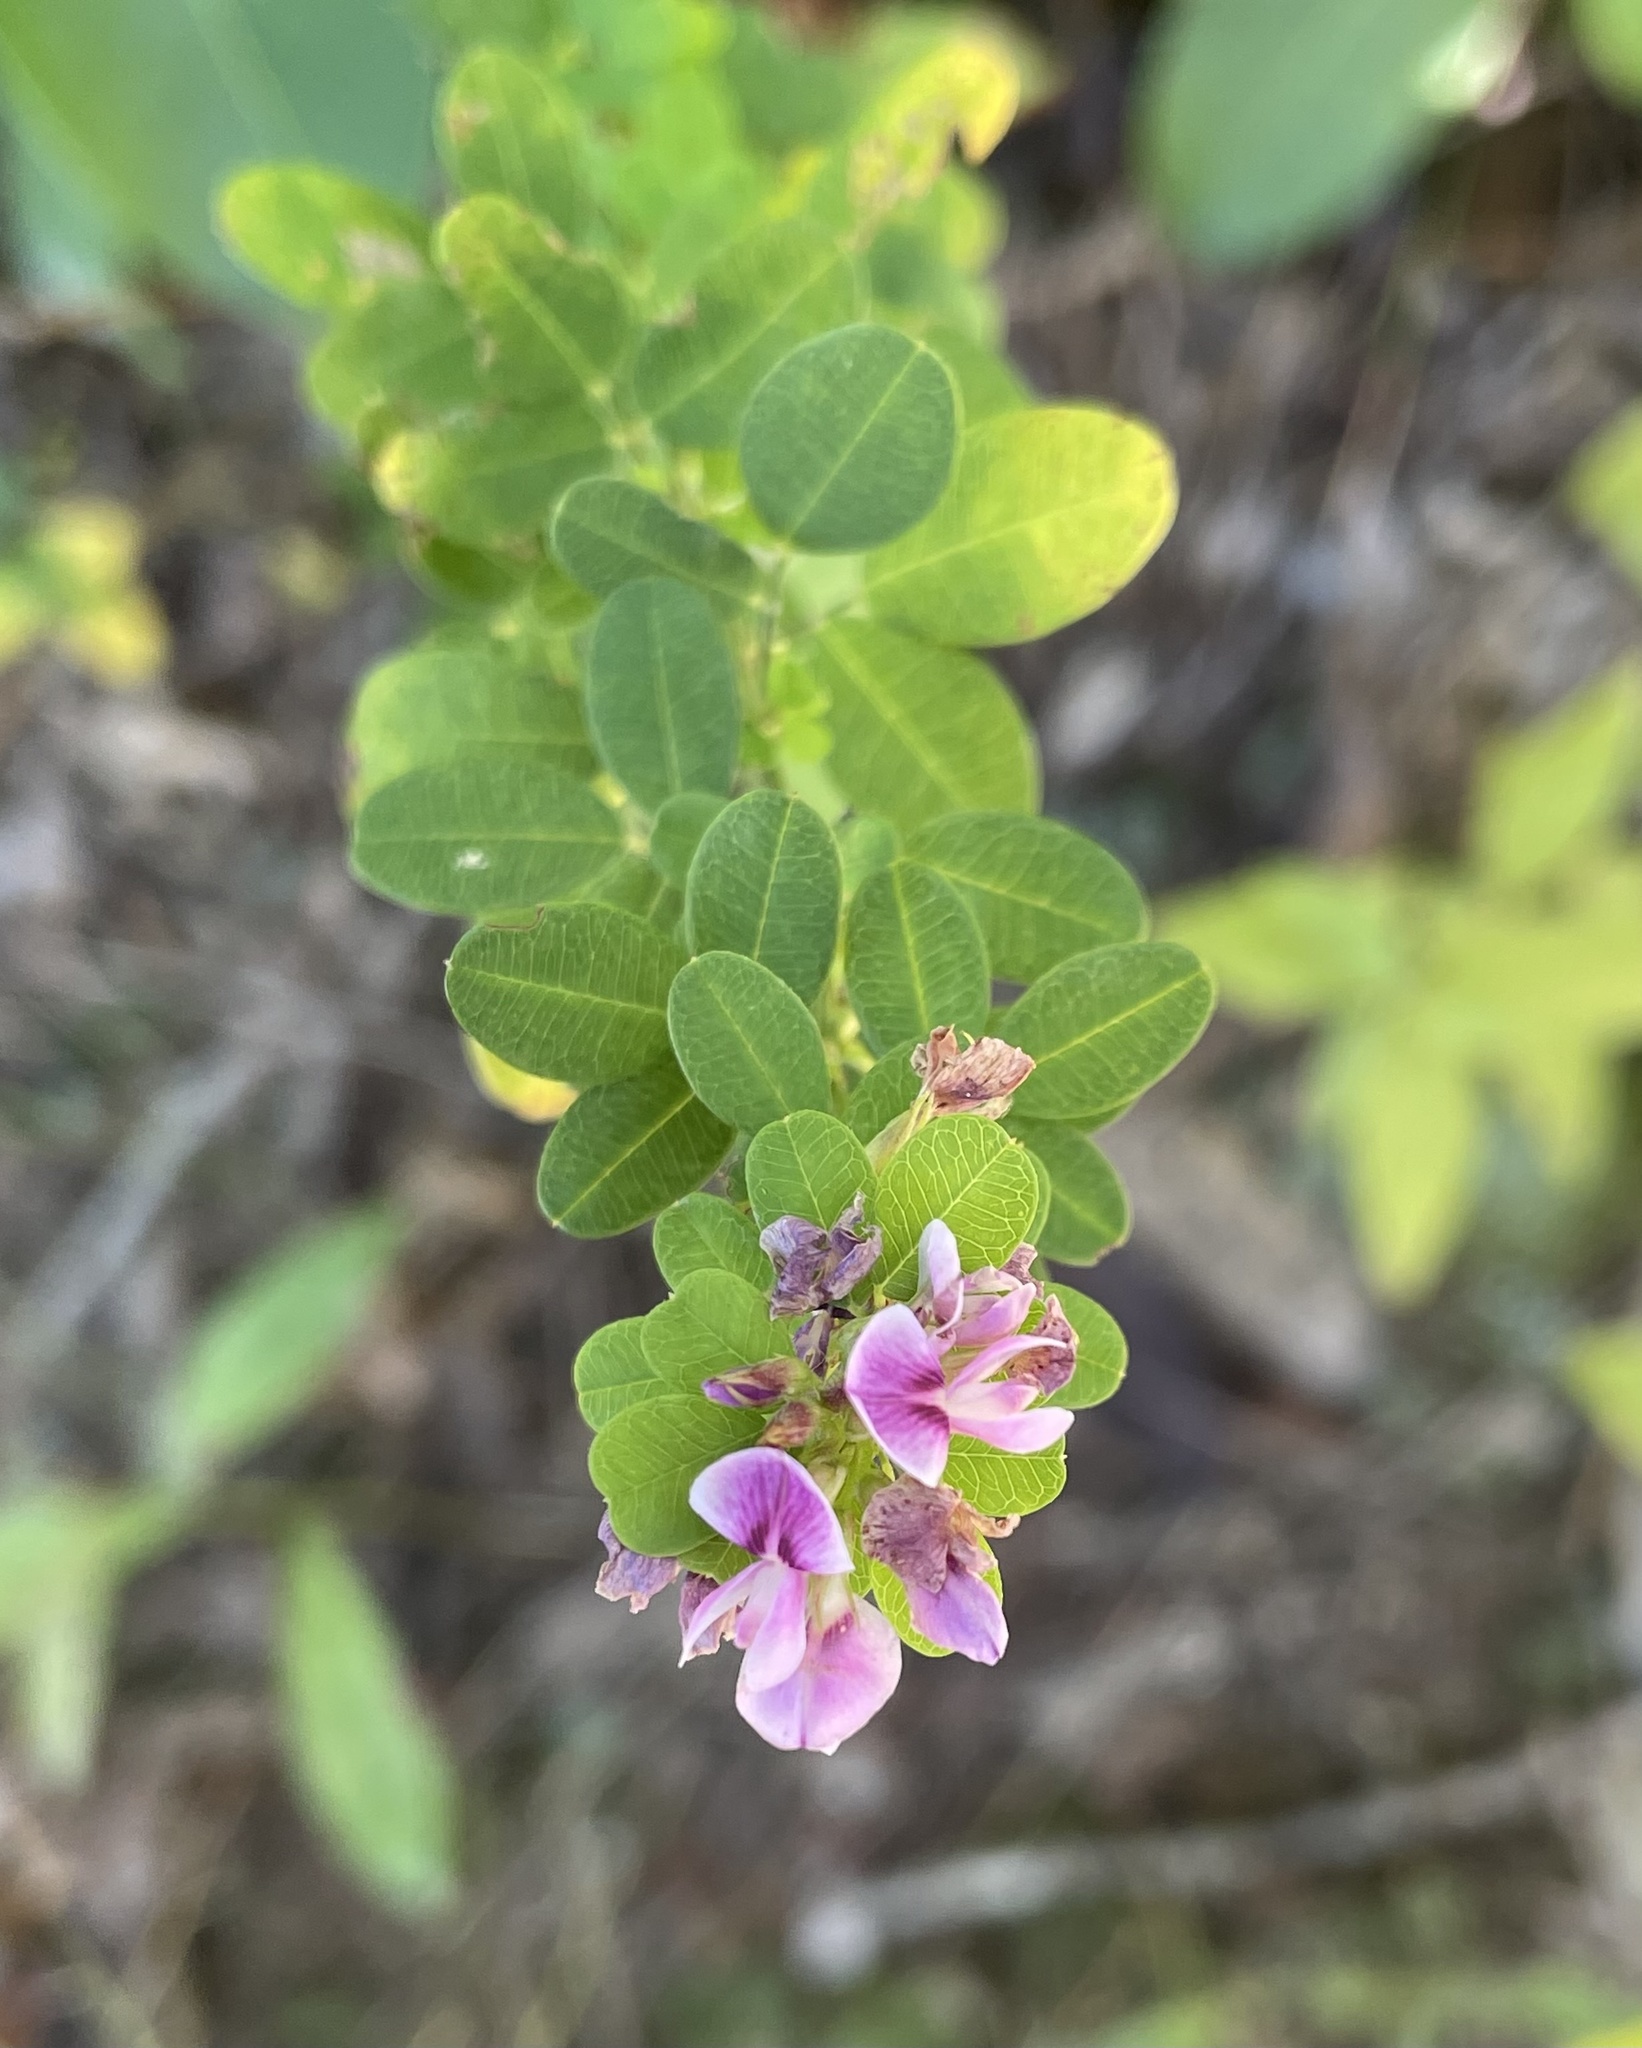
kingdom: Plantae
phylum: Tracheophyta
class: Magnoliopsida
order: Fabales
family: Fabaceae
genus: Lespedeza
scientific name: Lespedeza violacea
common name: Wand bush-clover
